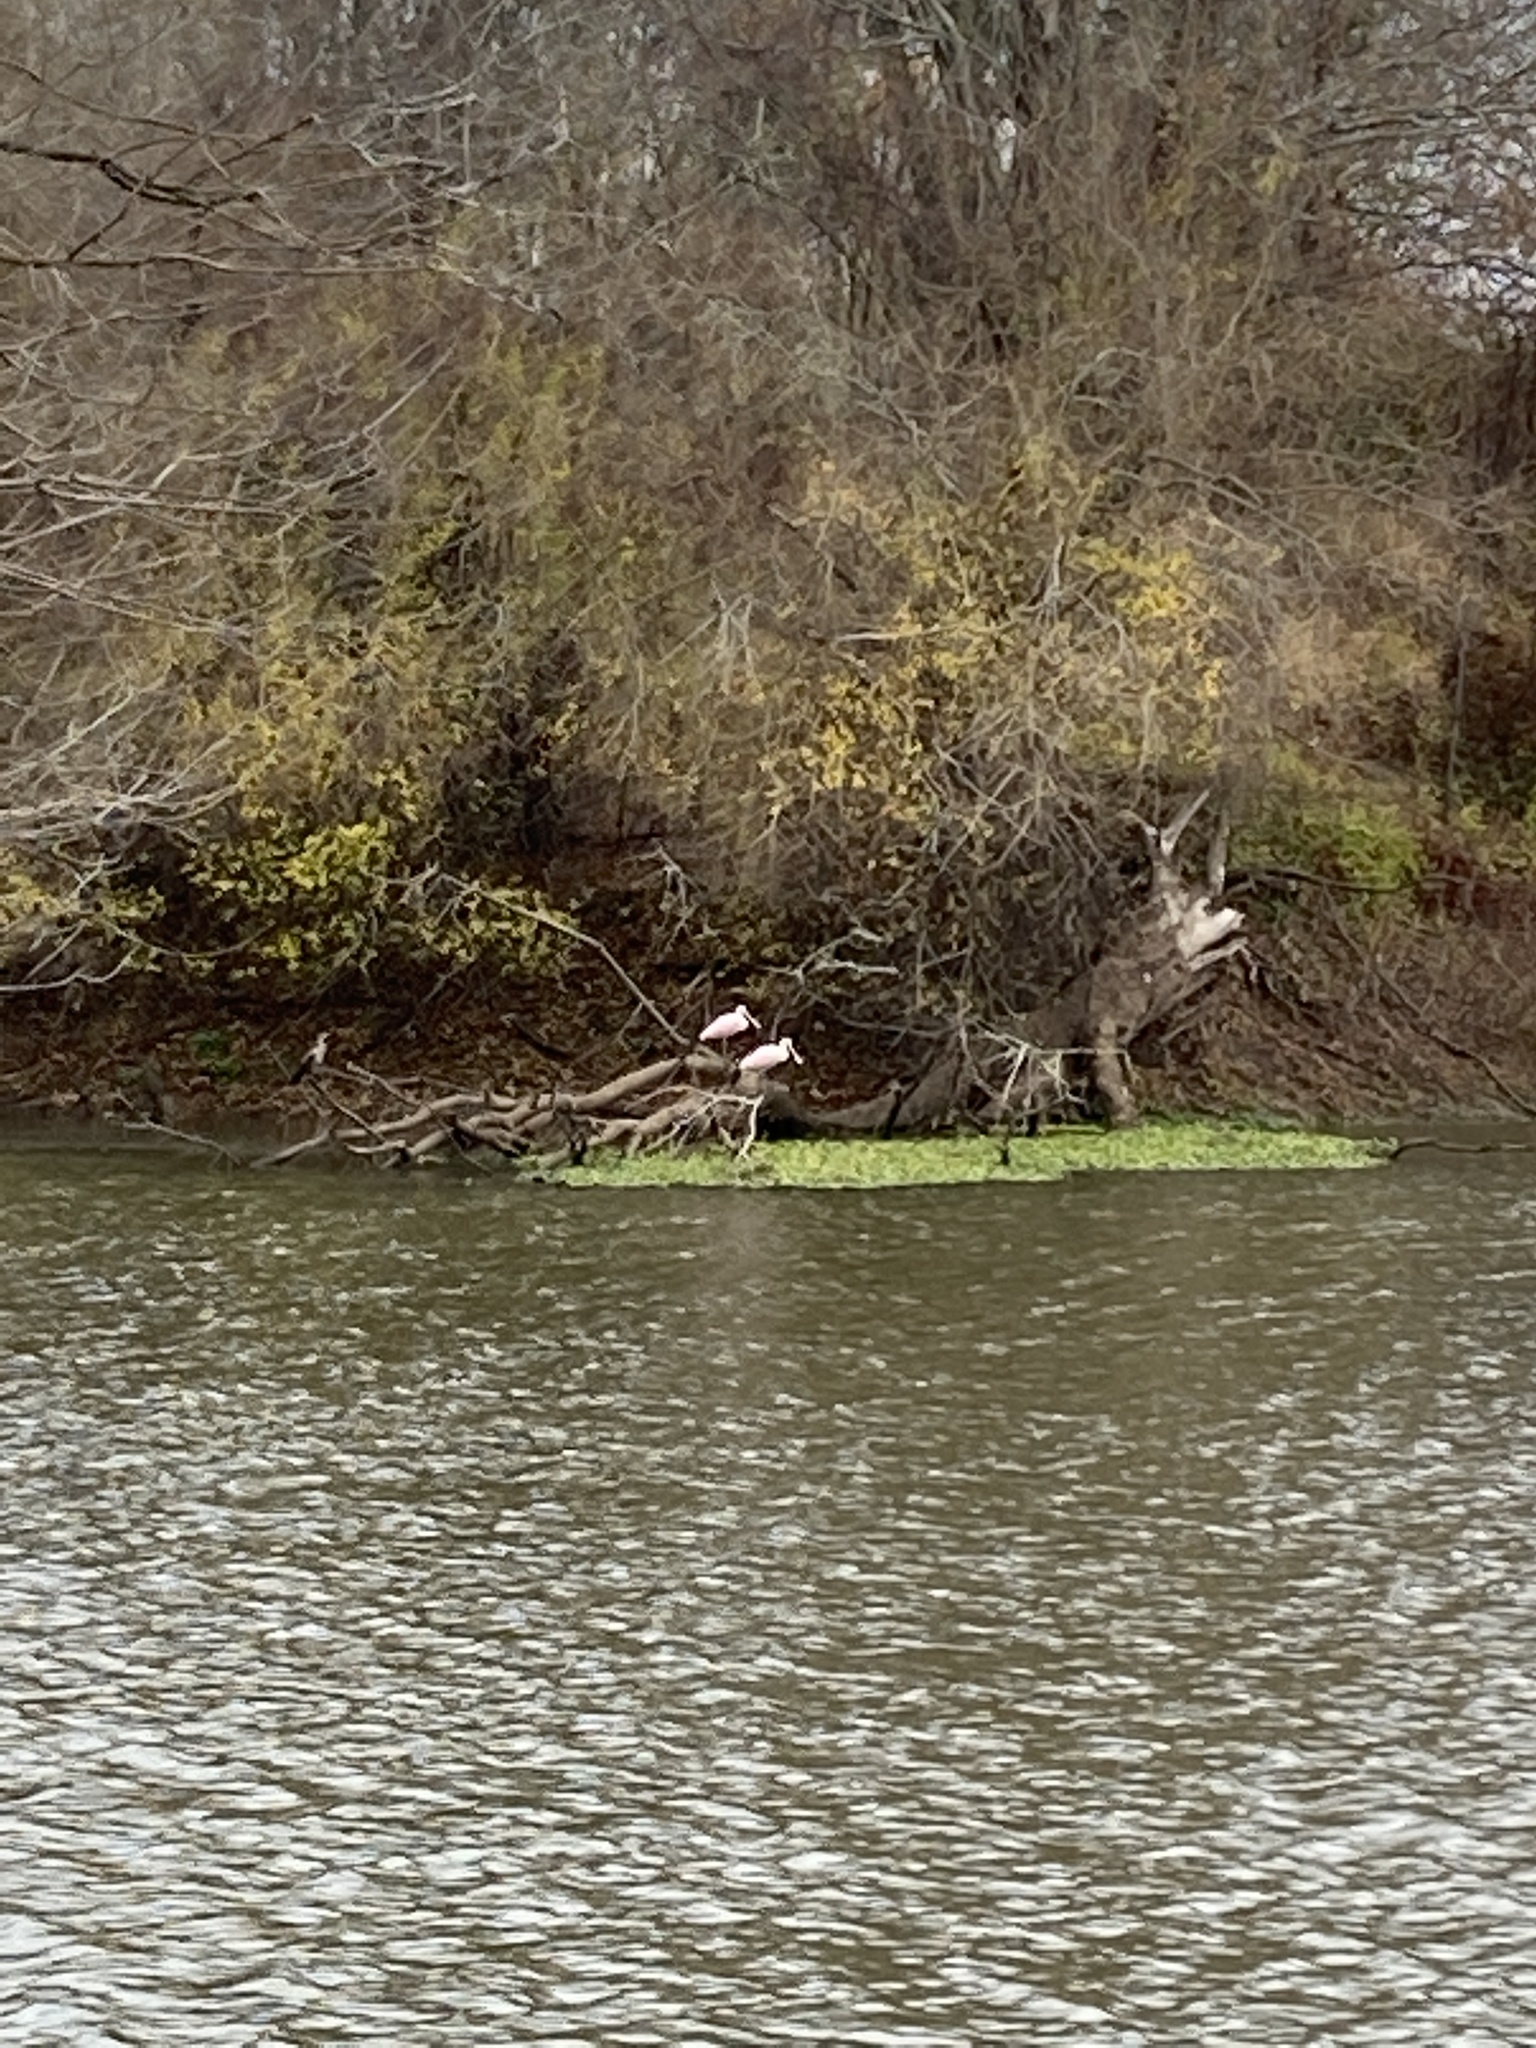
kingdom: Animalia
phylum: Chordata
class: Aves
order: Pelecaniformes
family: Threskiornithidae
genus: Platalea
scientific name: Platalea ajaja
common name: Roseate spoonbill
